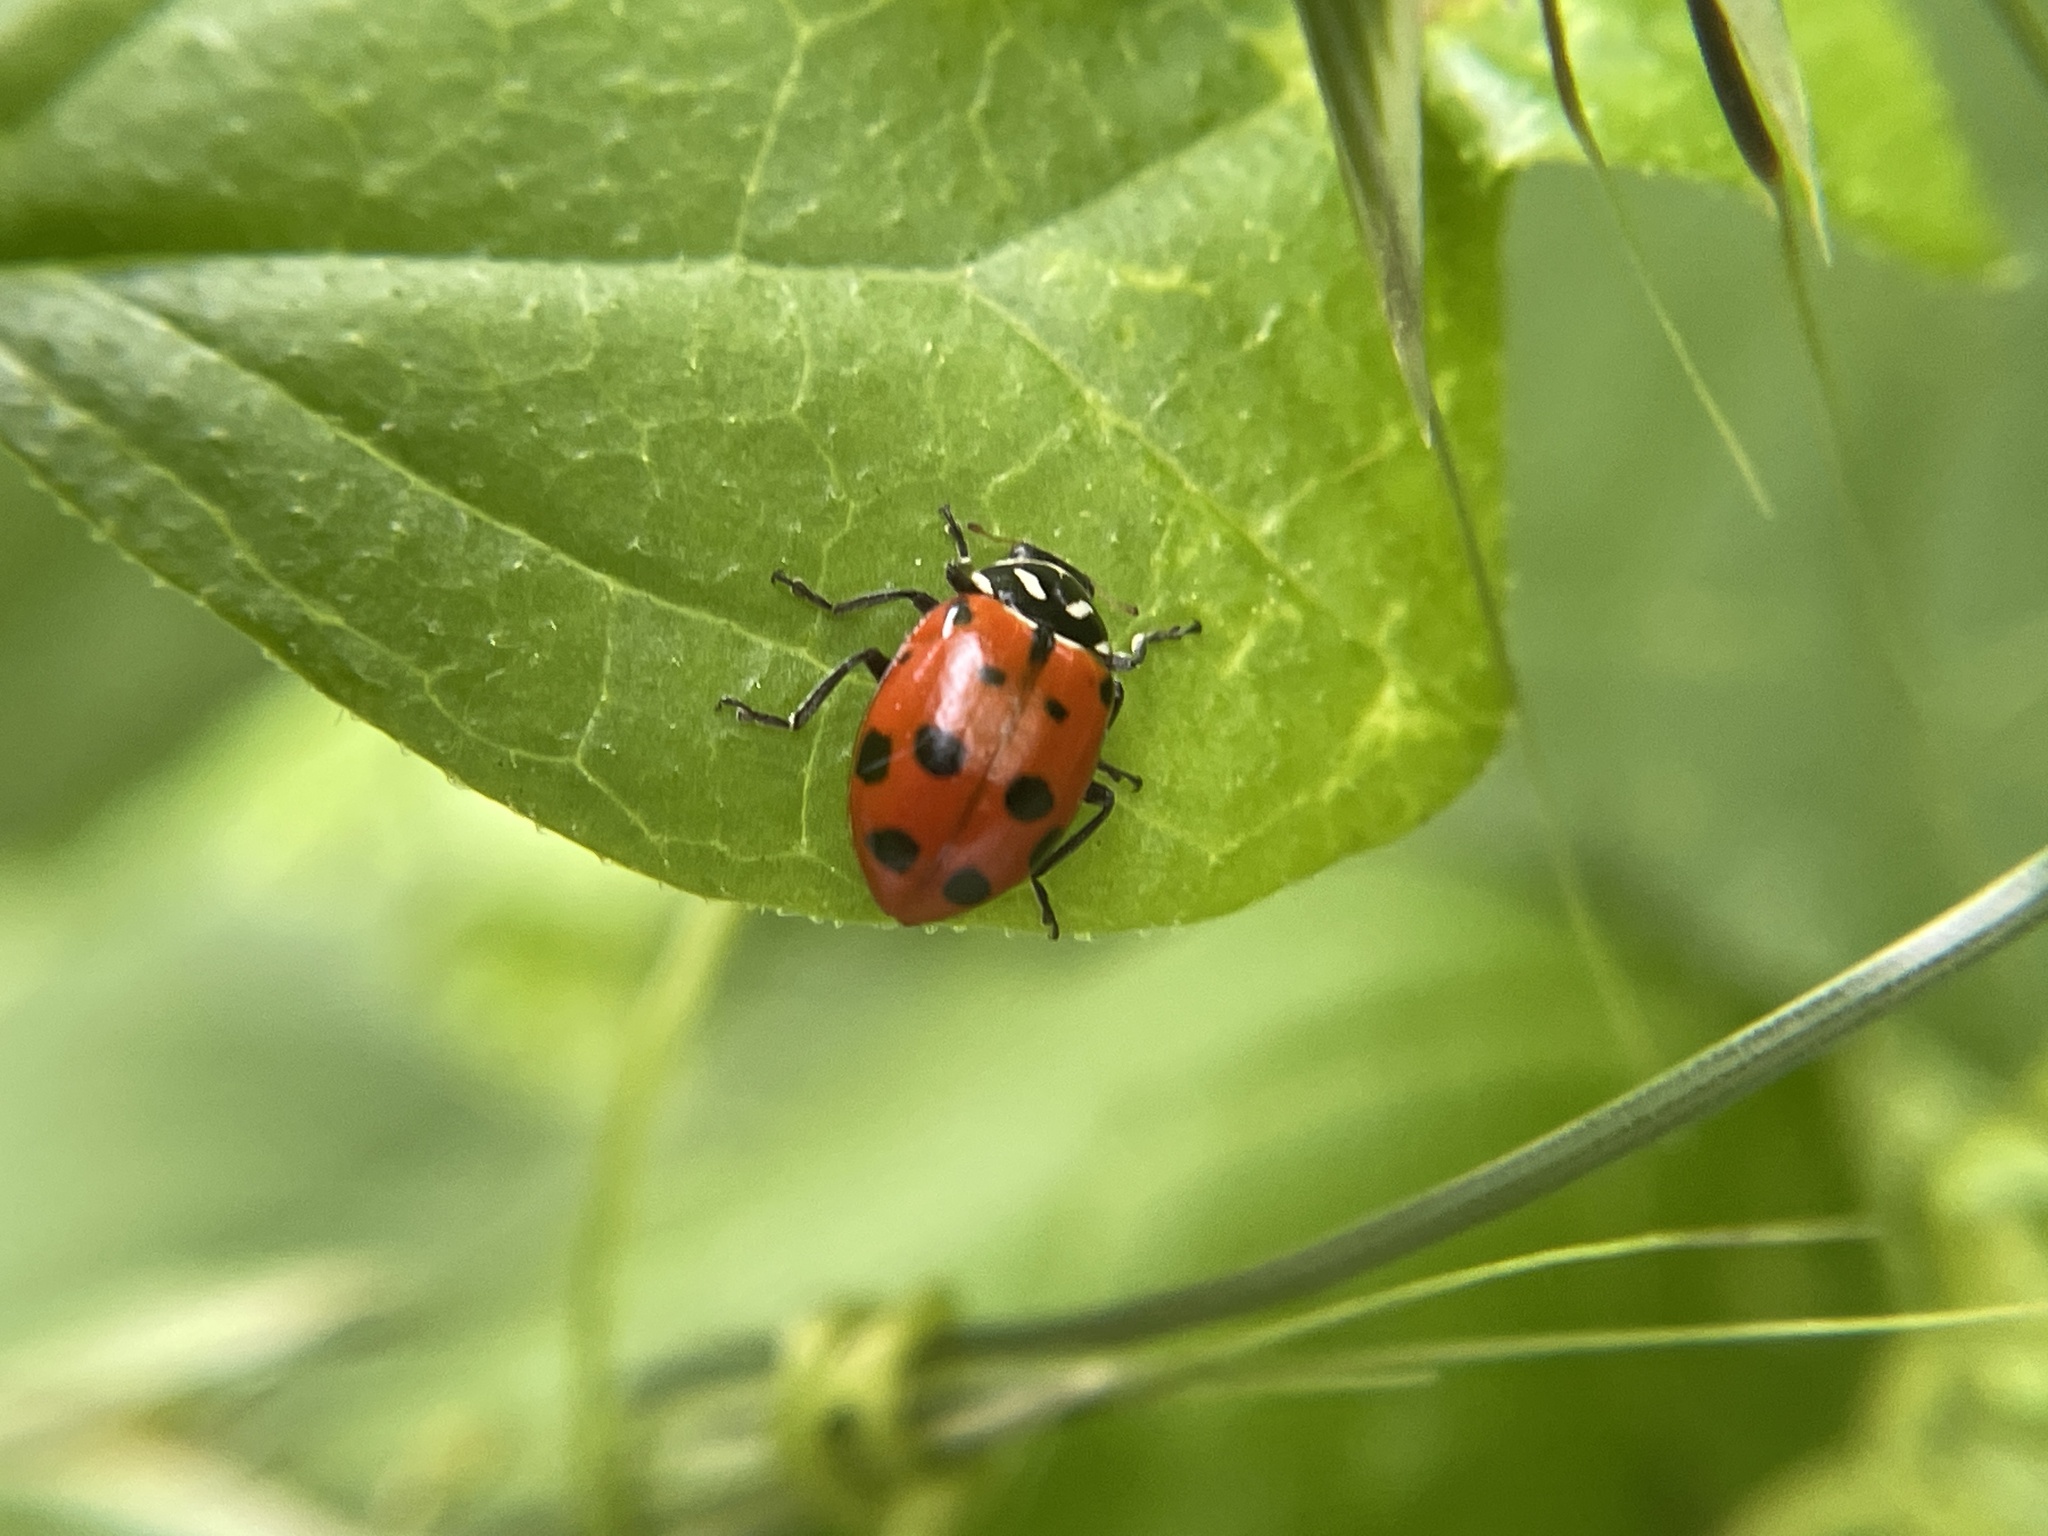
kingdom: Animalia
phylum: Arthropoda
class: Insecta
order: Coleoptera
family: Coccinellidae
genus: Hippodamia
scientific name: Hippodamia convergens
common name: Convergent lady beetle
